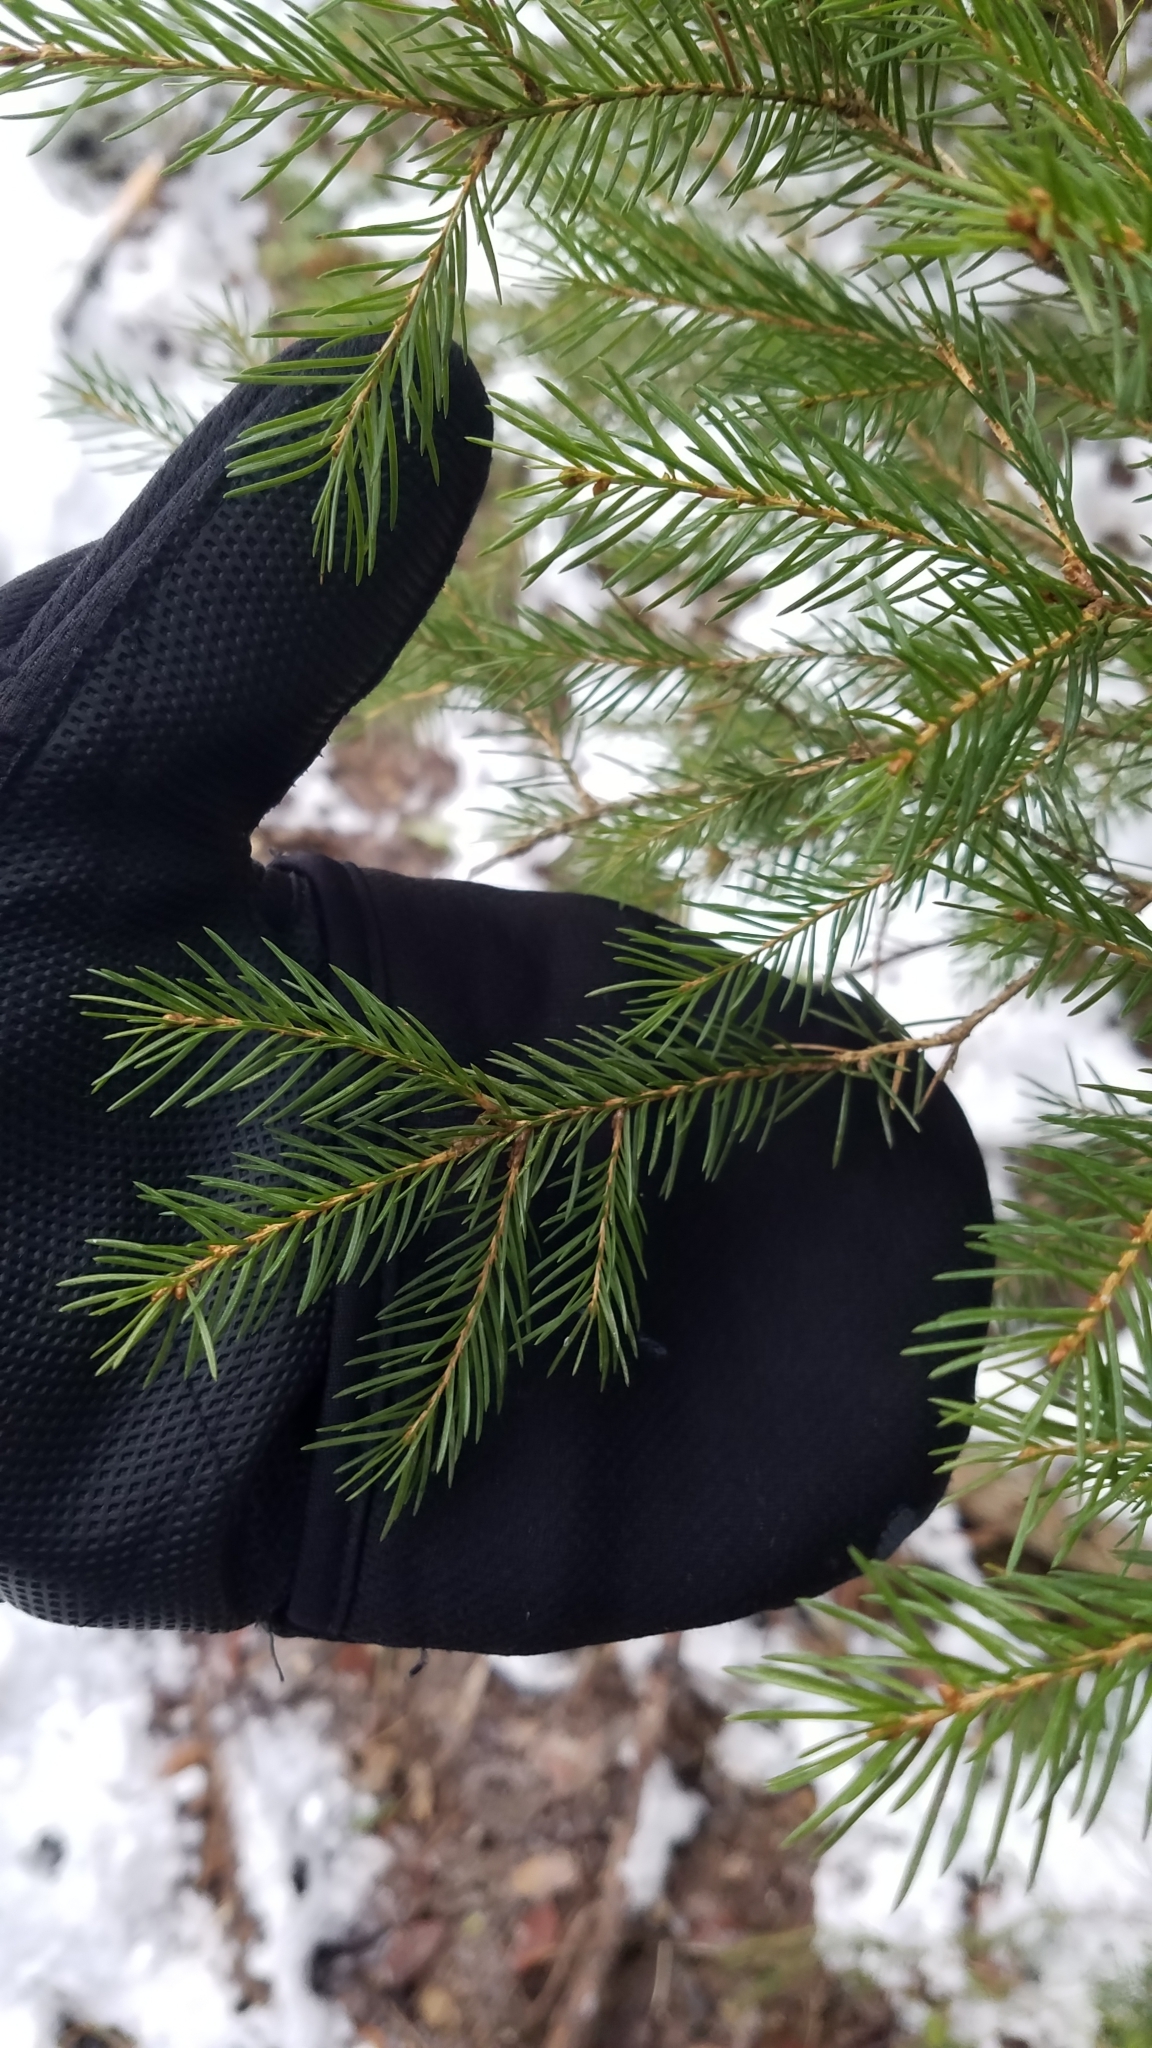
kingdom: Plantae
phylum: Tracheophyta
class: Pinopsida
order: Pinales
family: Pinaceae
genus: Picea
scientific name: Picea abies
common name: Norway spruce
